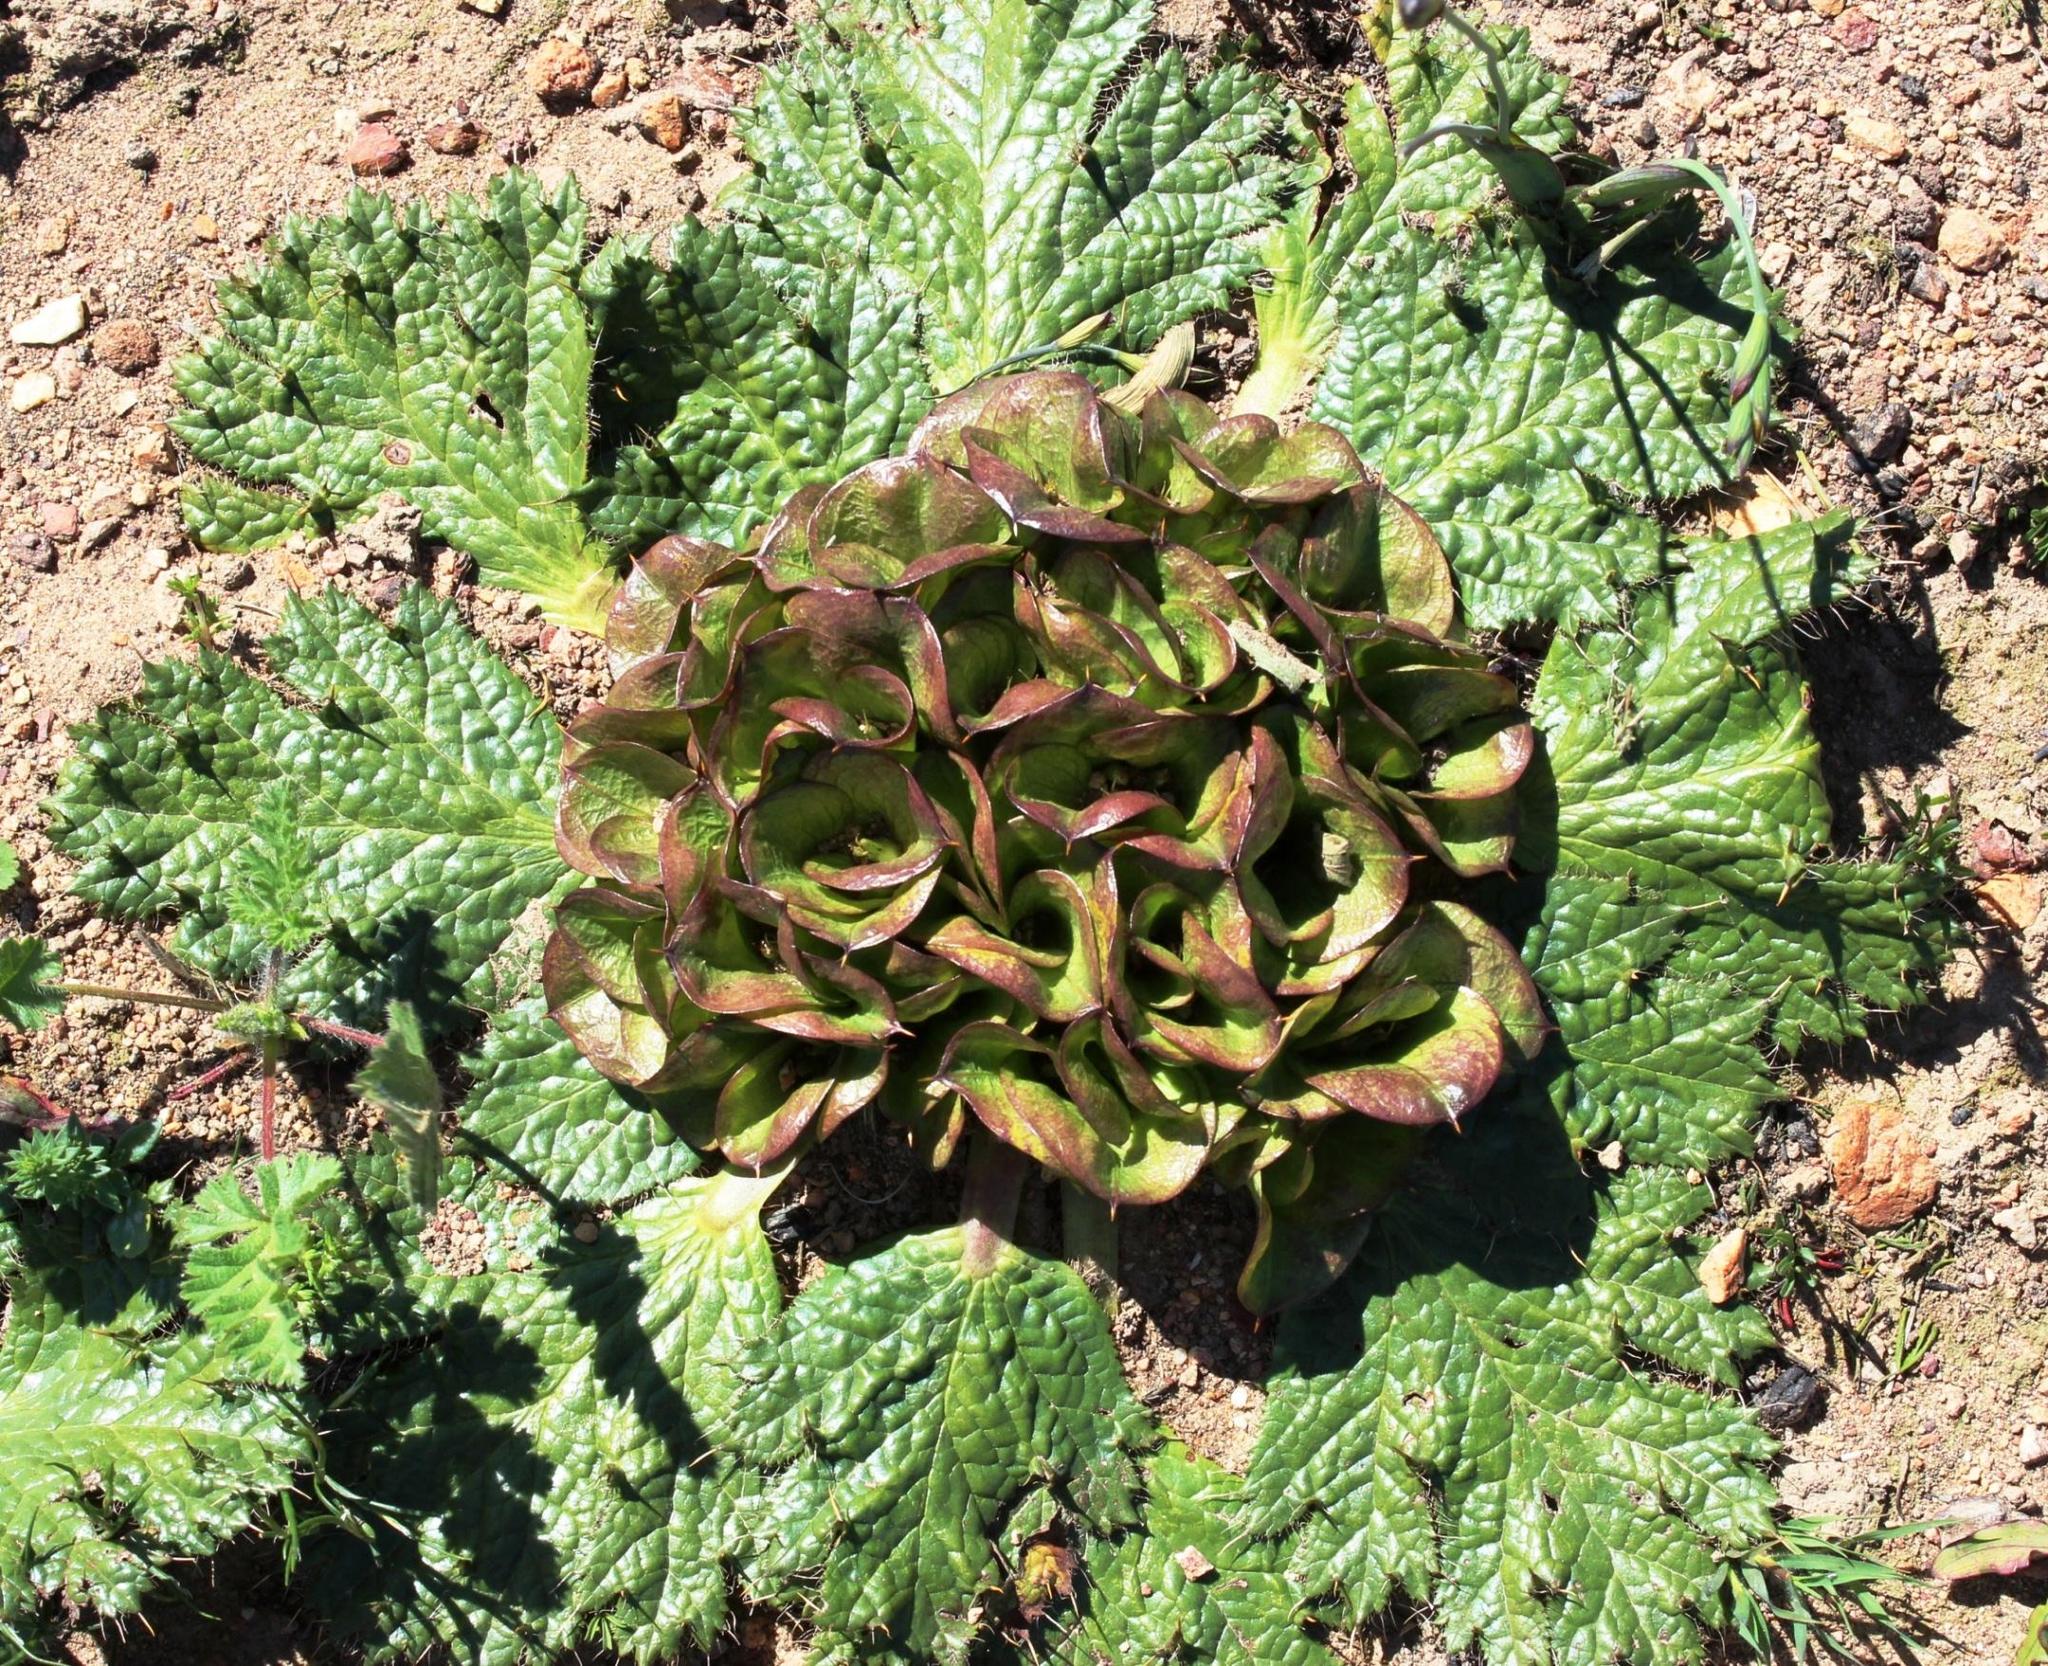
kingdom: Plantae
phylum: Tracheophyta
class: Magnoliopsida
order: Apiales
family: Apiaceae
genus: Arctopus
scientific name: Arctopus monacanthus
